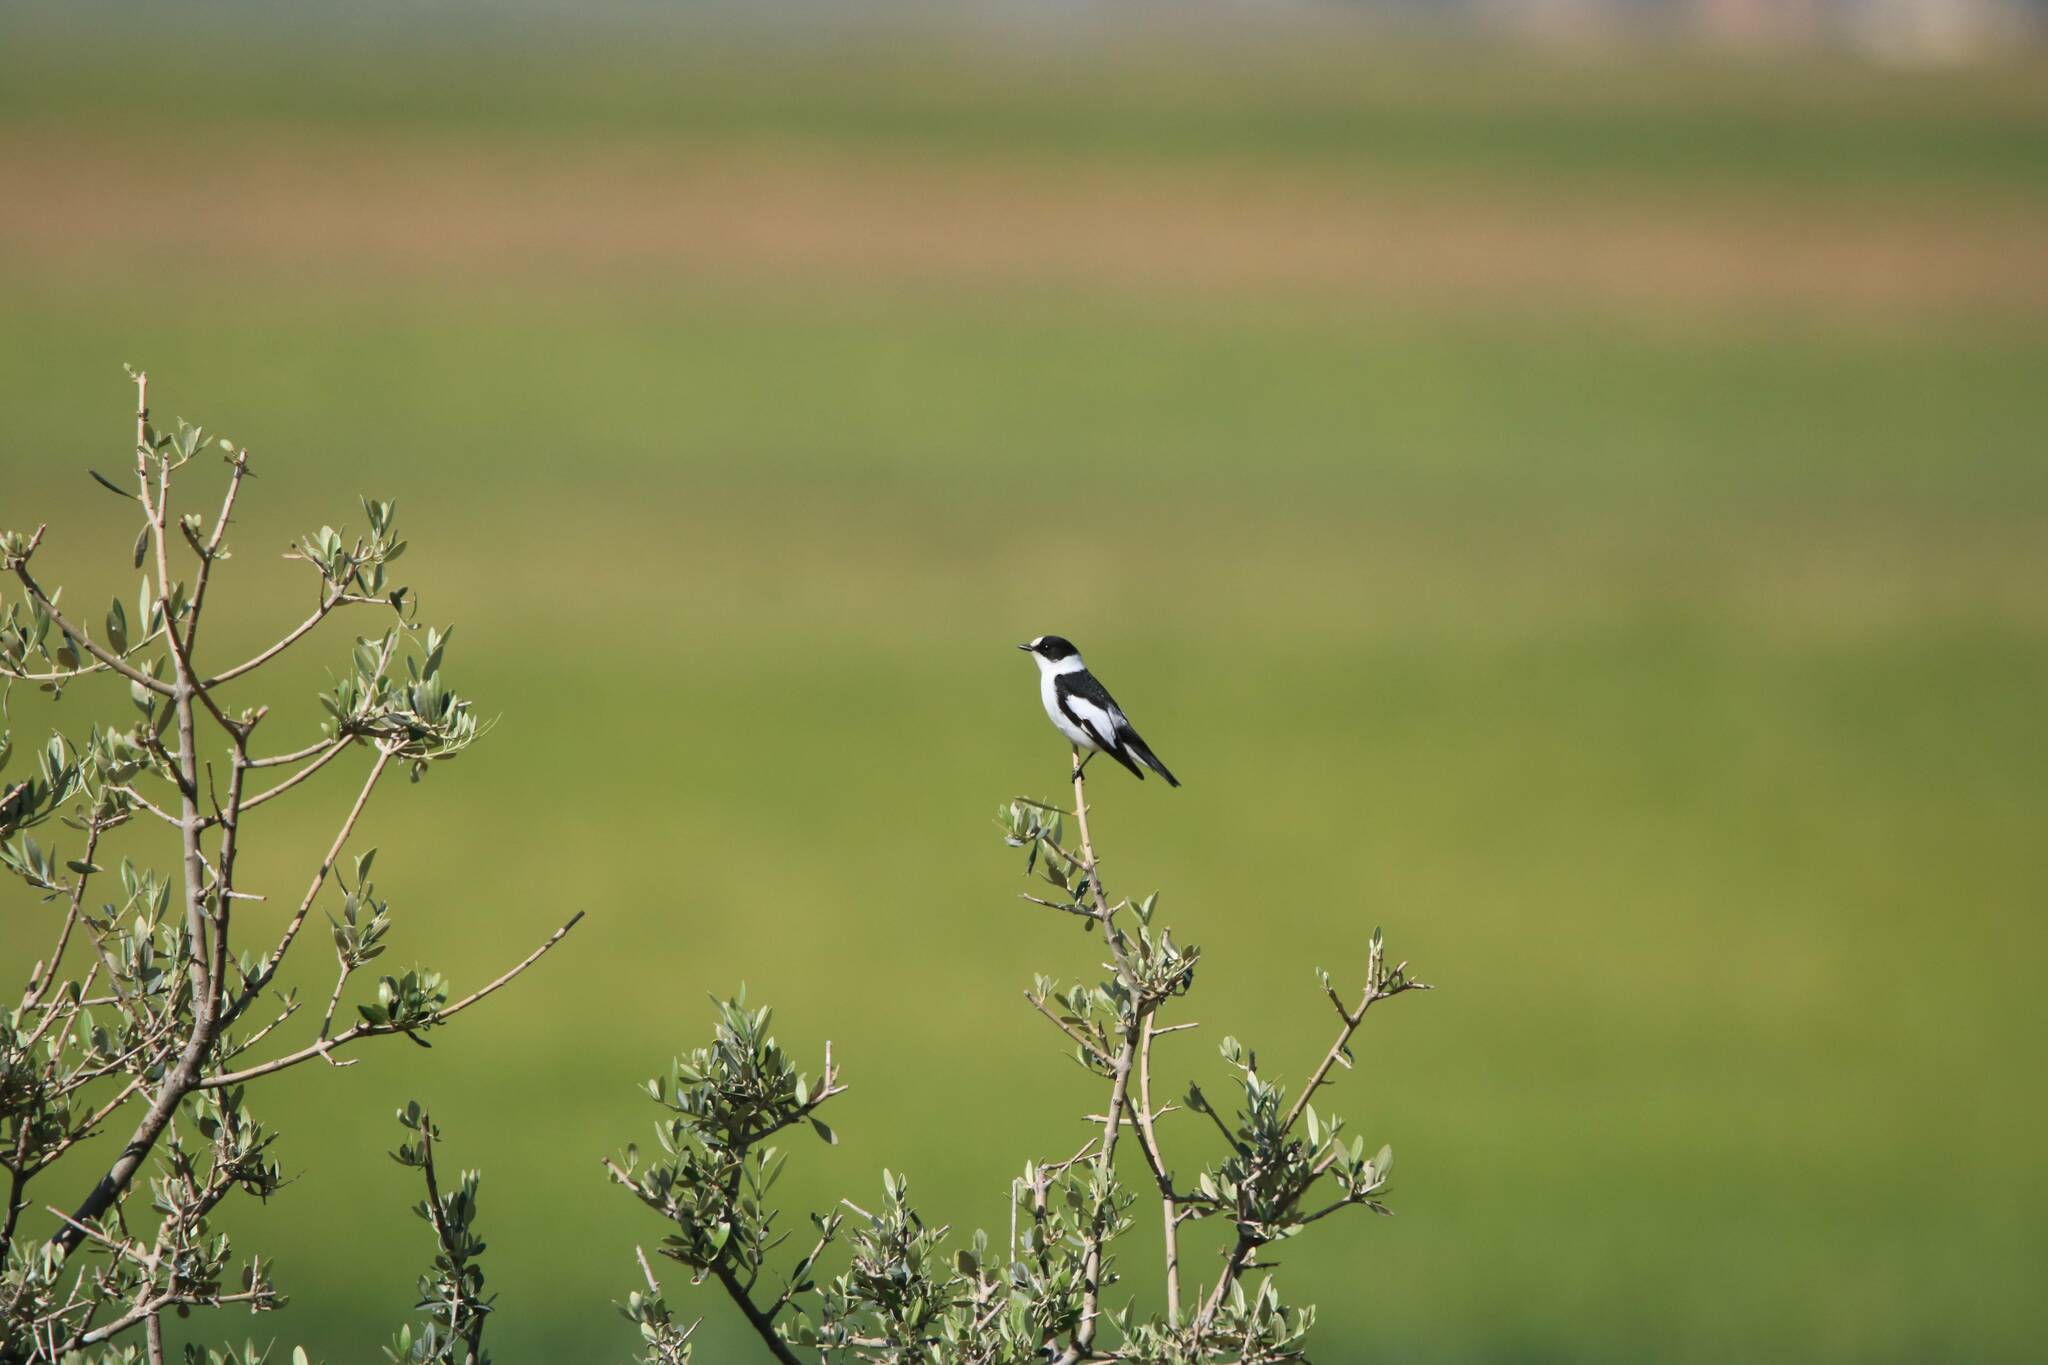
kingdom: Animalia
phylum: Chordata
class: Aves
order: Passeriformes
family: Muscicapidae
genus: Ficedula
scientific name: Ficedula albicollis
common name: Collared flycatcher
